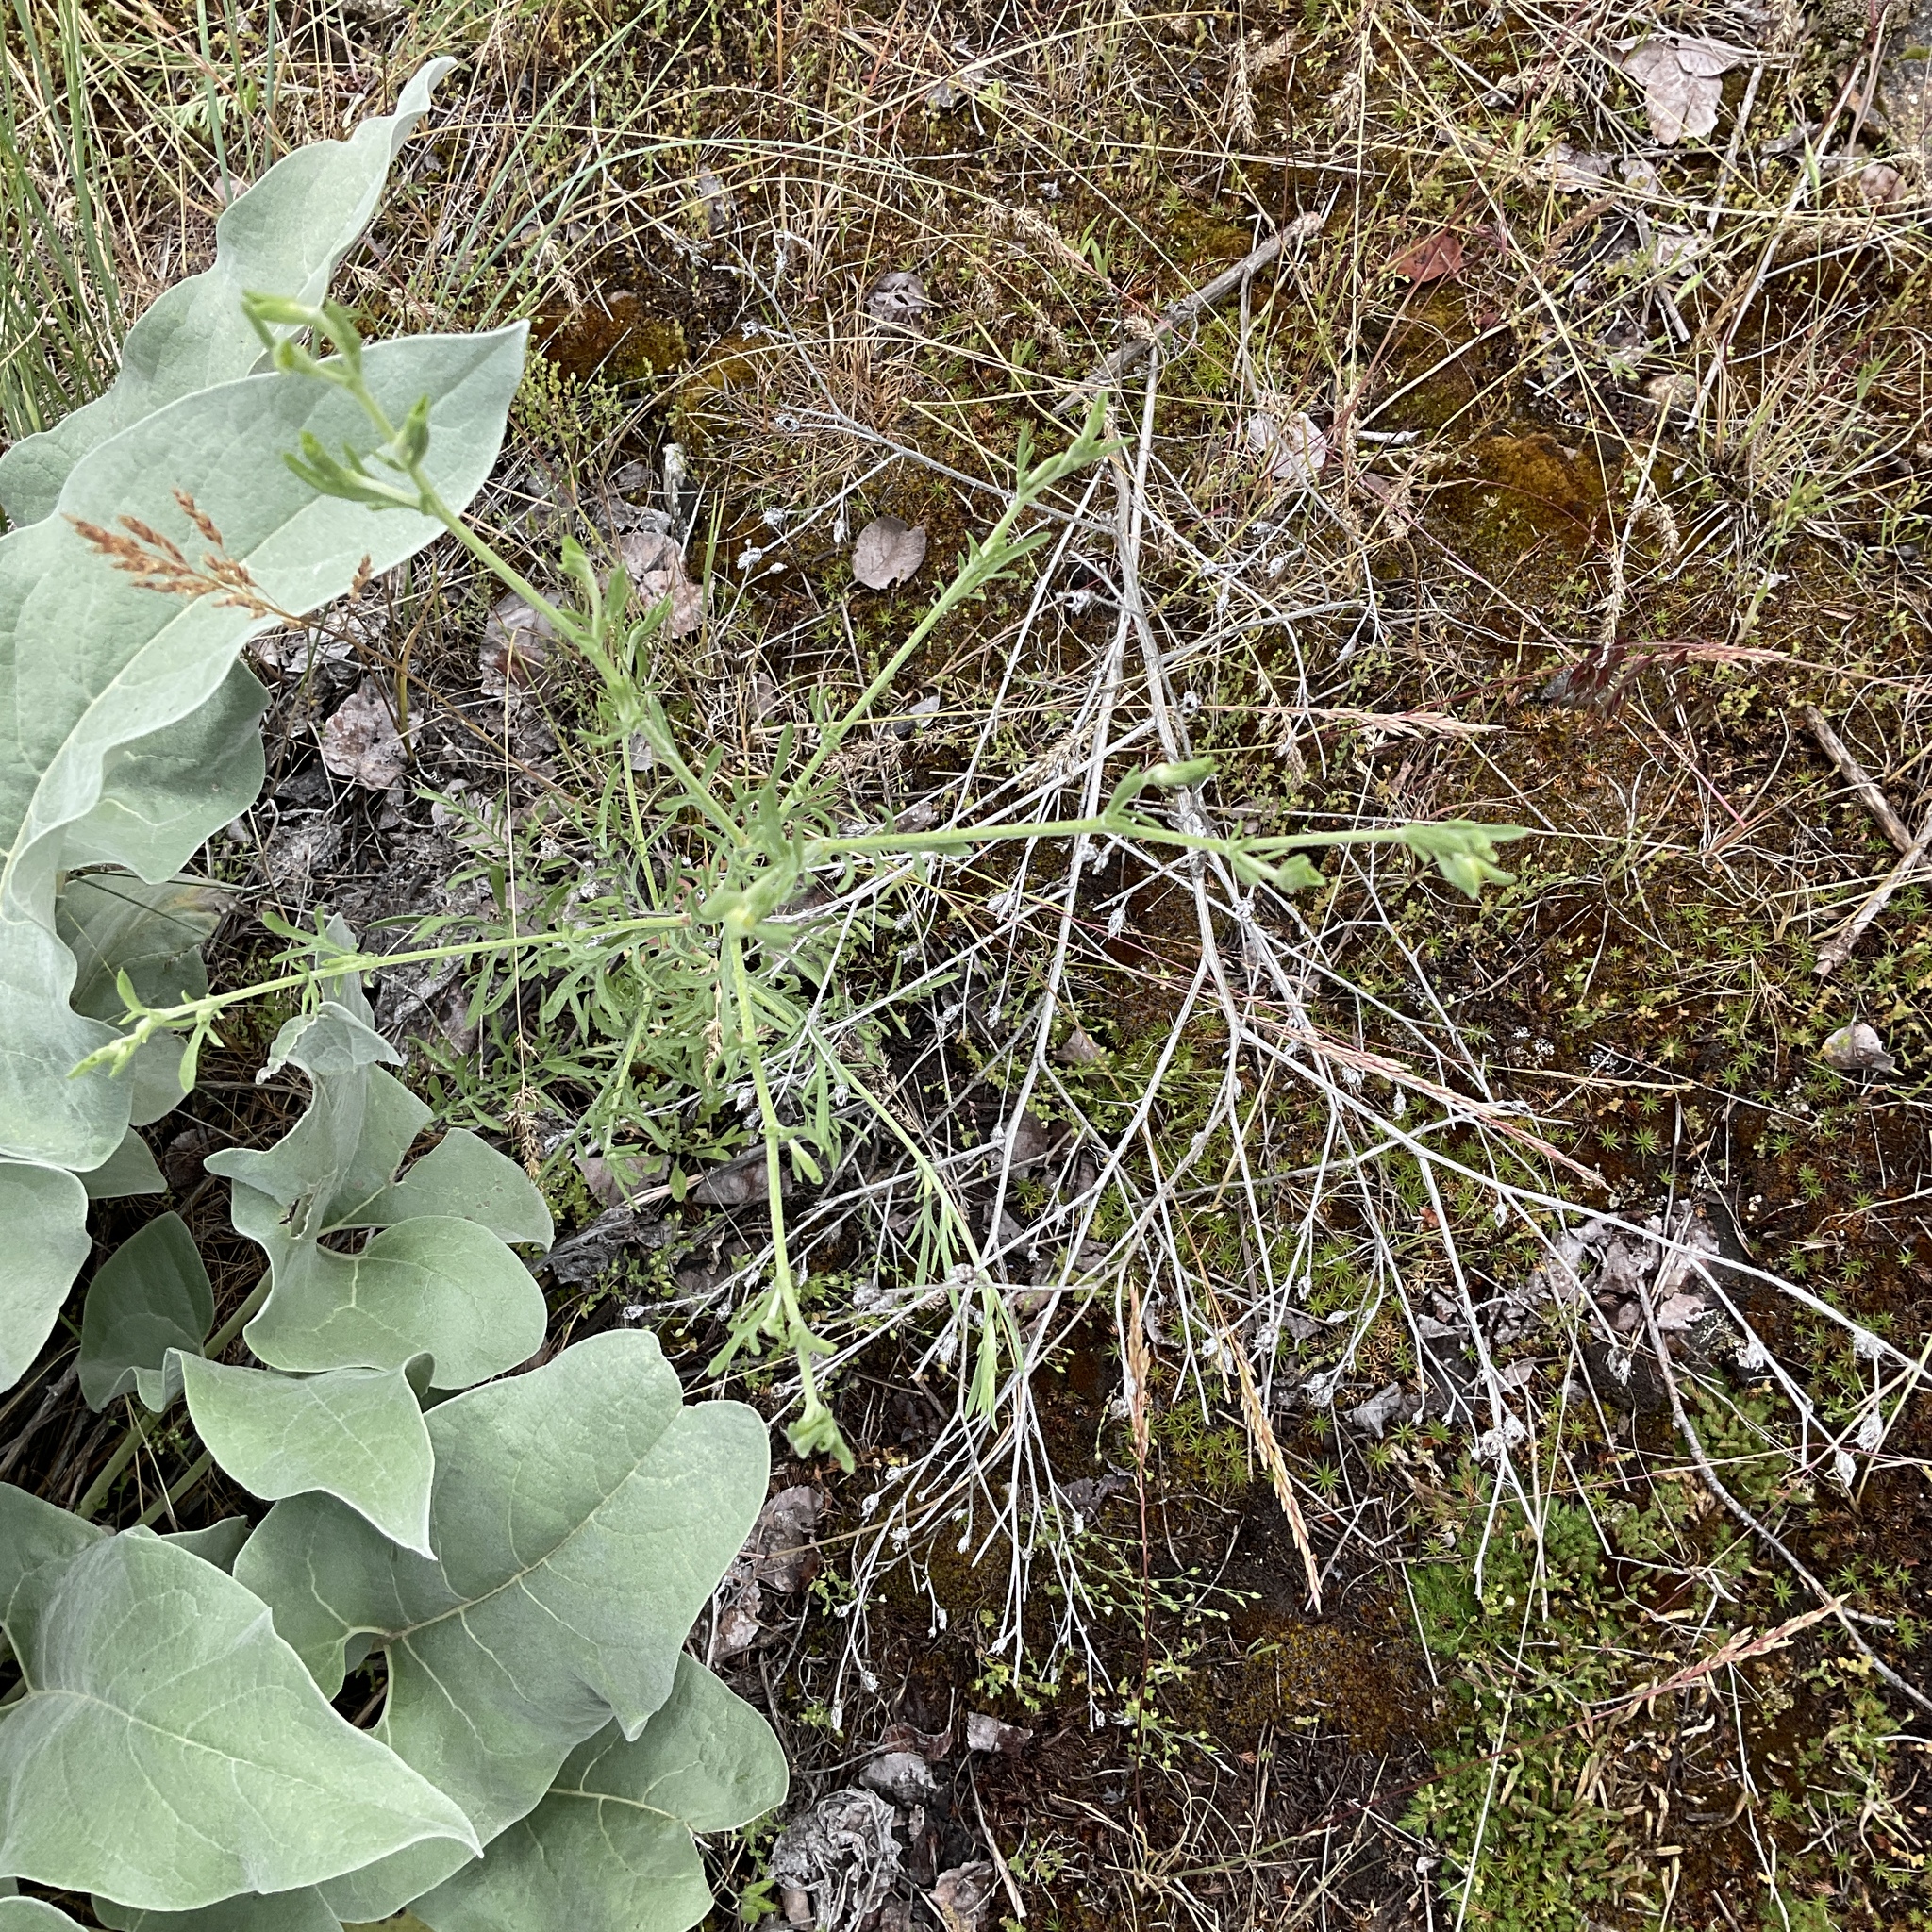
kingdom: Plantae
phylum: Tracheophyta
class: Magnoliopsida
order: Asterales
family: Asteraceae
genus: Centaurea
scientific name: Centaurea diffusa
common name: Diffuse knapweed
